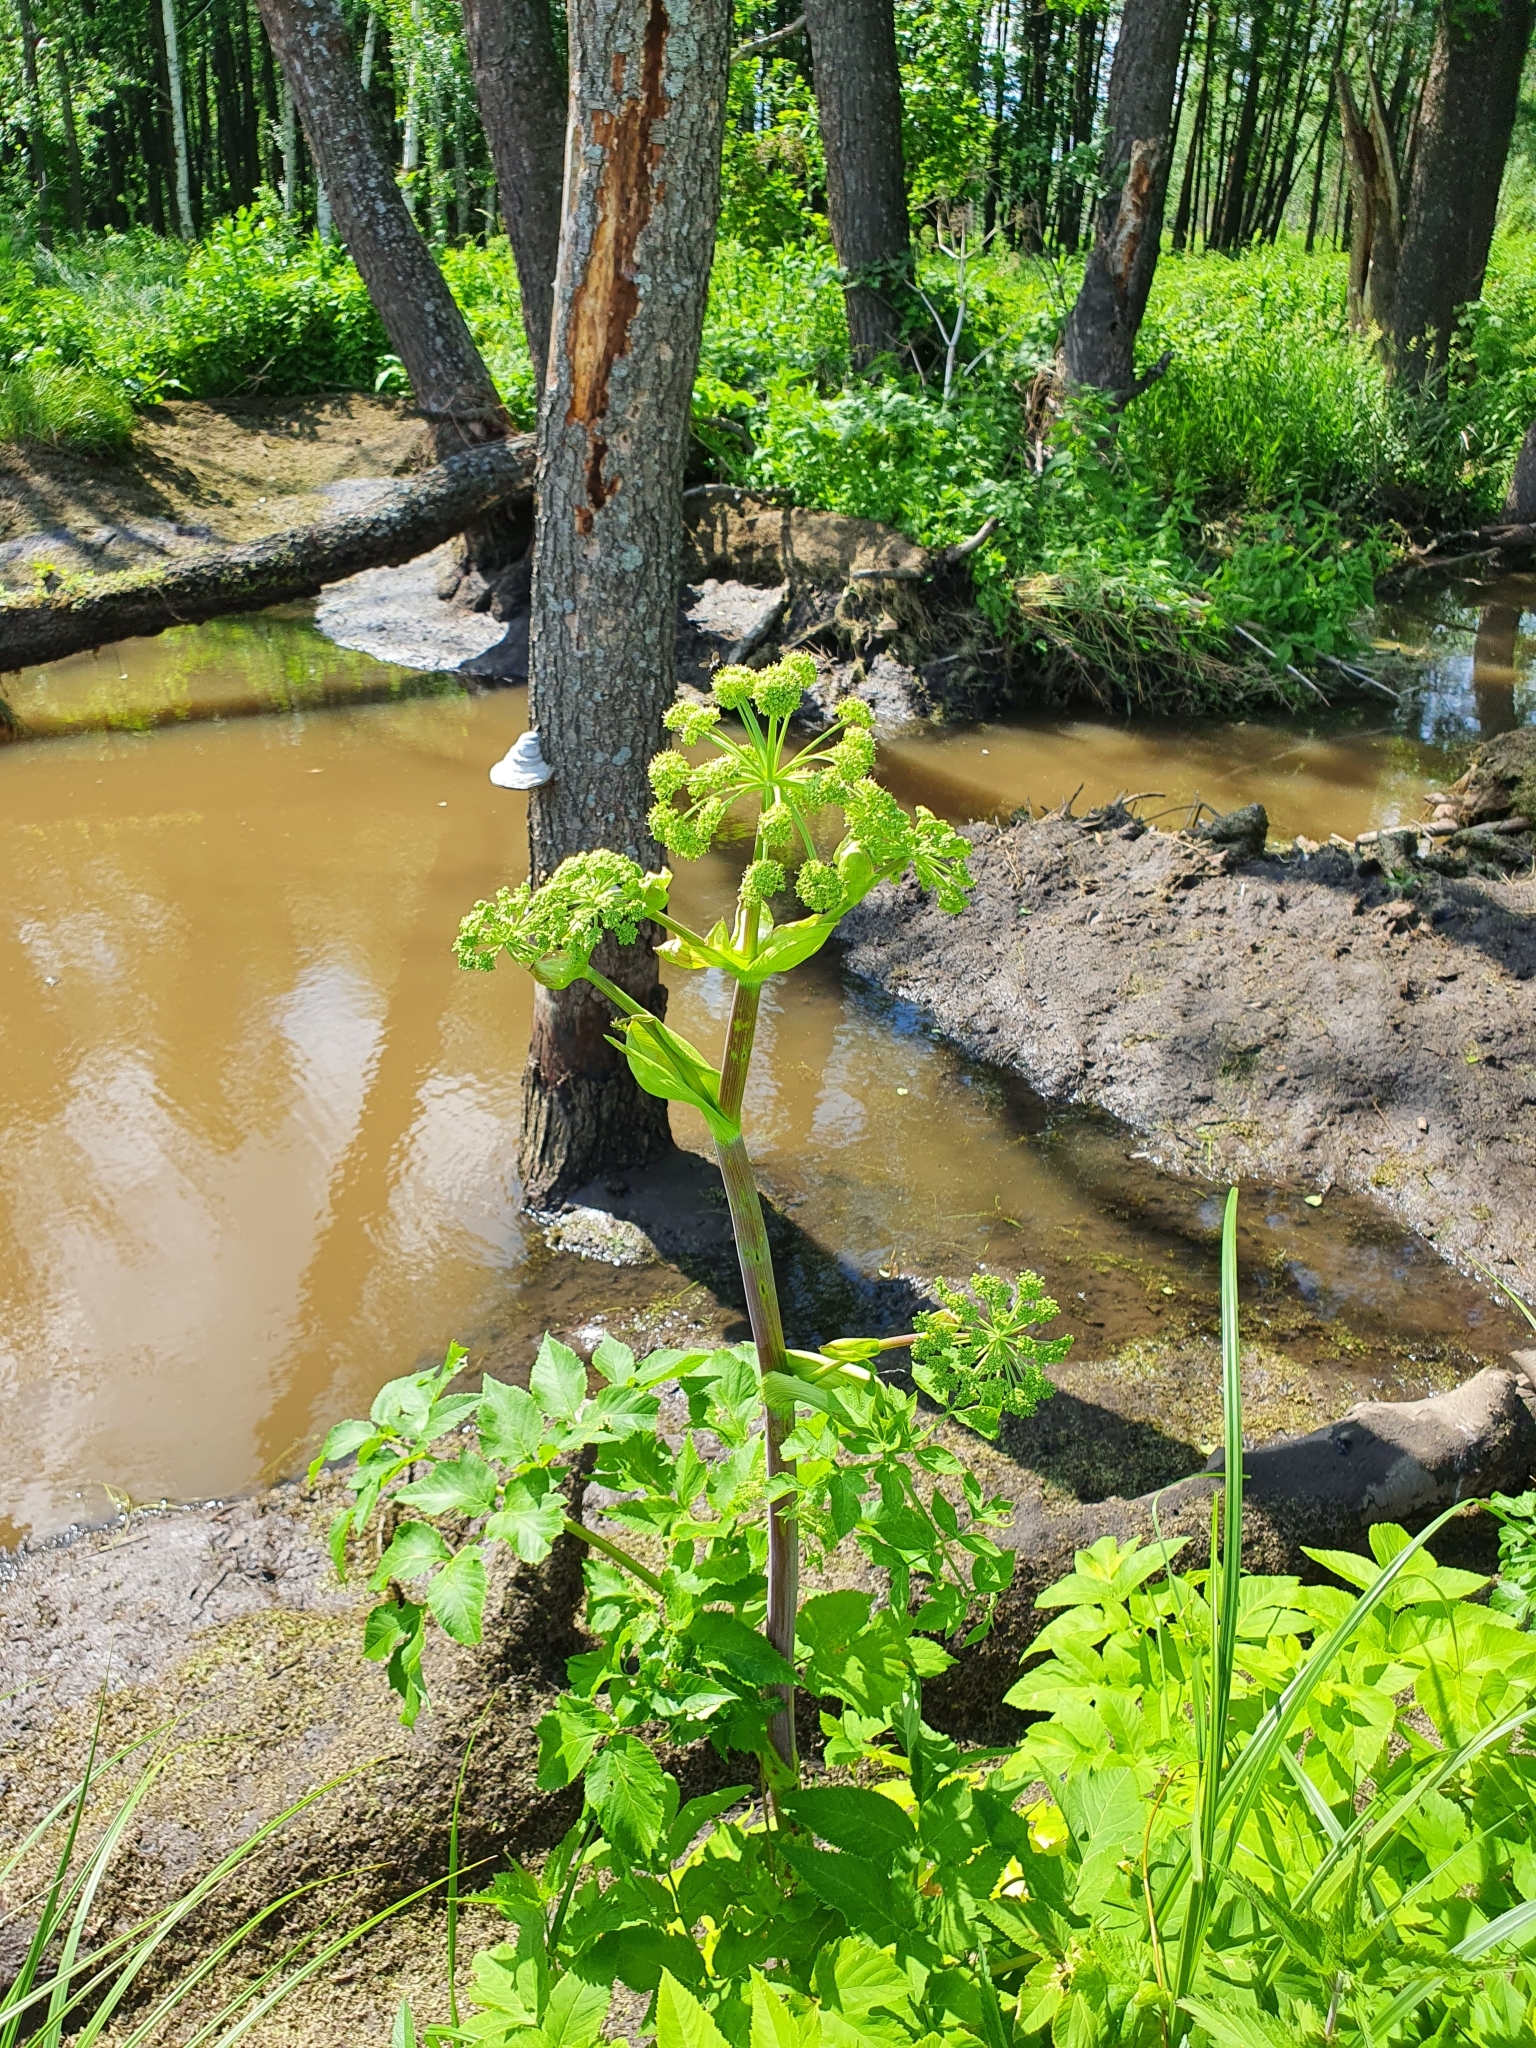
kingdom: Plantae
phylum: Tracheophyta
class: Magnoliopsida
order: Apiales
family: Apiaceae
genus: Angelica
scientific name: Angelica archangelica
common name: Garden angelica
